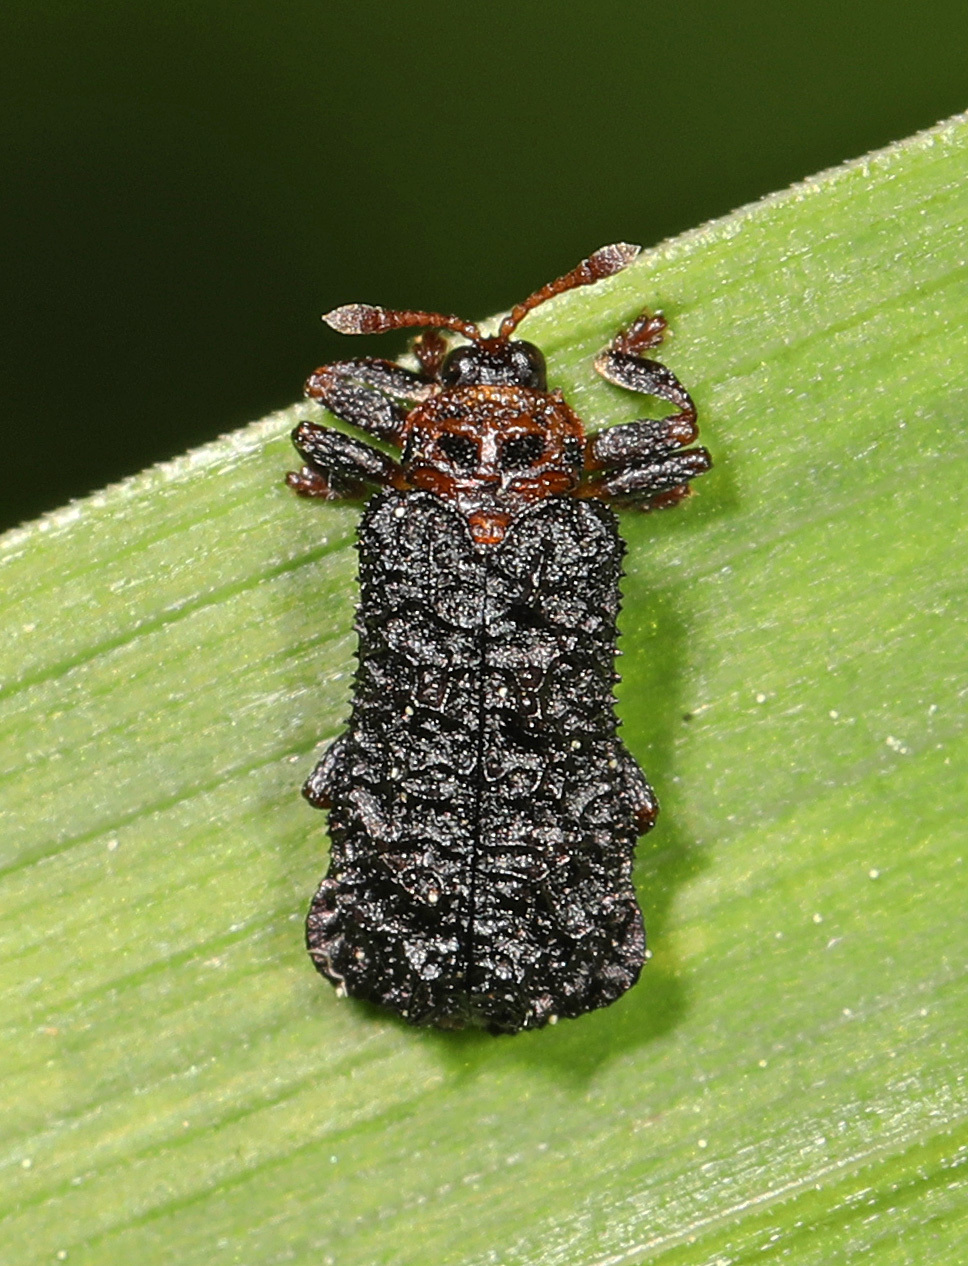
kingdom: Animalia
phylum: Arthropoda
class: Insecta
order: Coleoptera
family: Chrysomelidae
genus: Octotoma
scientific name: Octotoma plicatula
